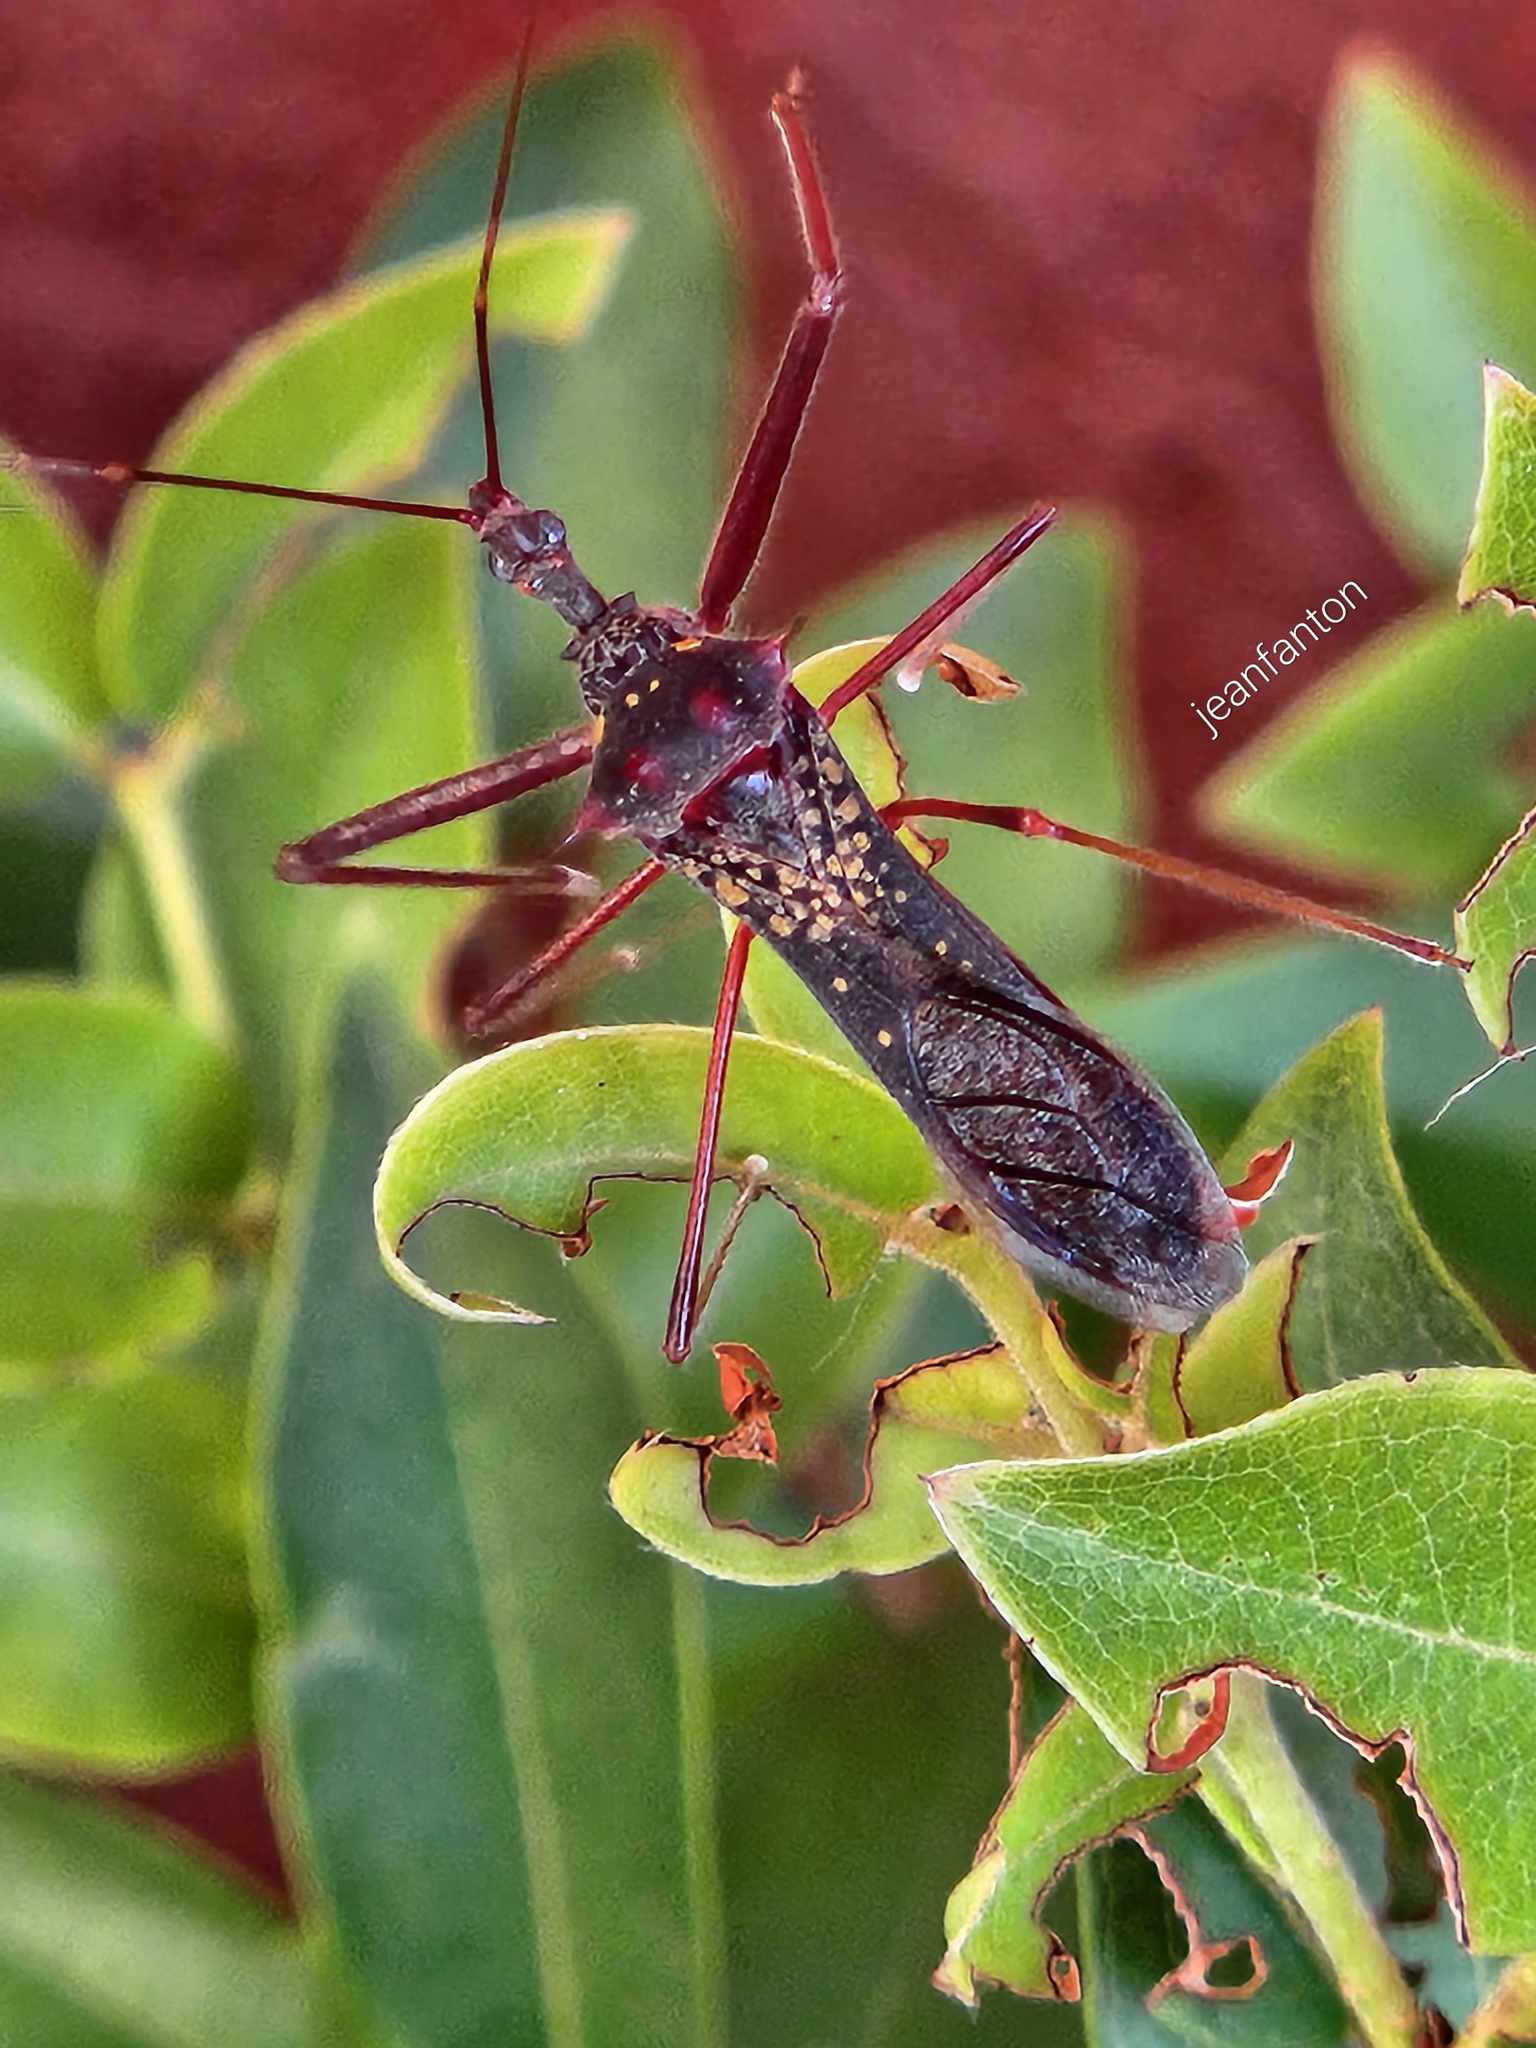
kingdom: Animalia
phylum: Arthropoda
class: Insecta
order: Hemiptera
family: Reduviidae
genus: Heza
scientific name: Heza binotata
